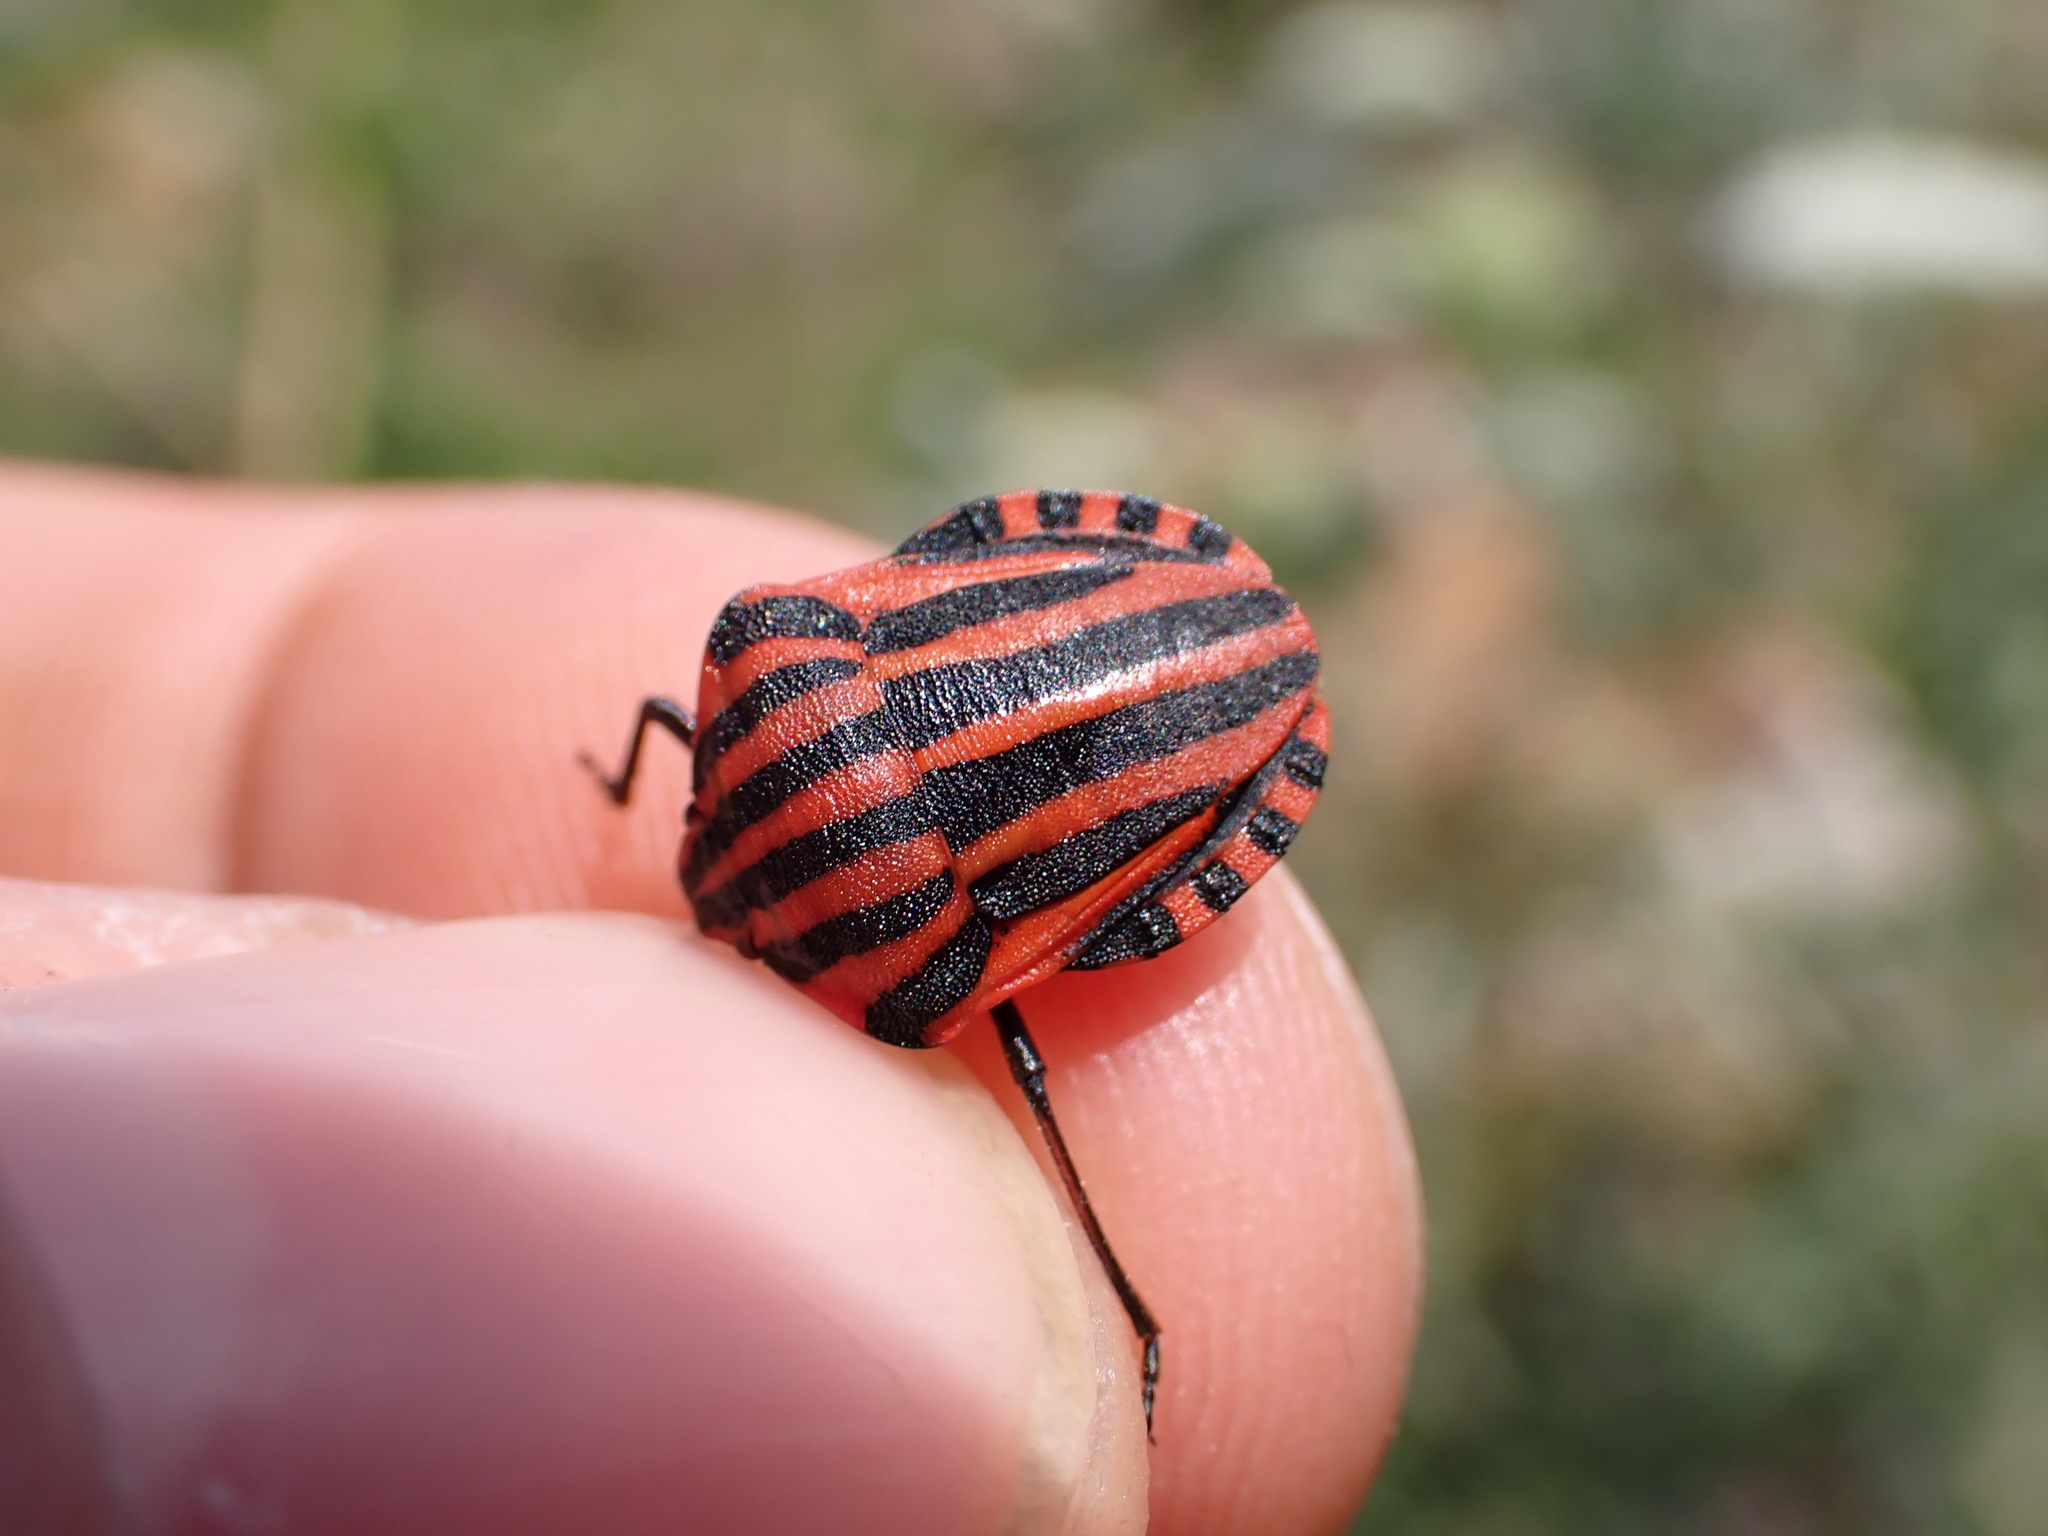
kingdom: Animalia
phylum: Arthropoda
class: Insecta
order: Hemiptera
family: Pentatomidae
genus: Graphosoma
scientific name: Graphosoma italicum
